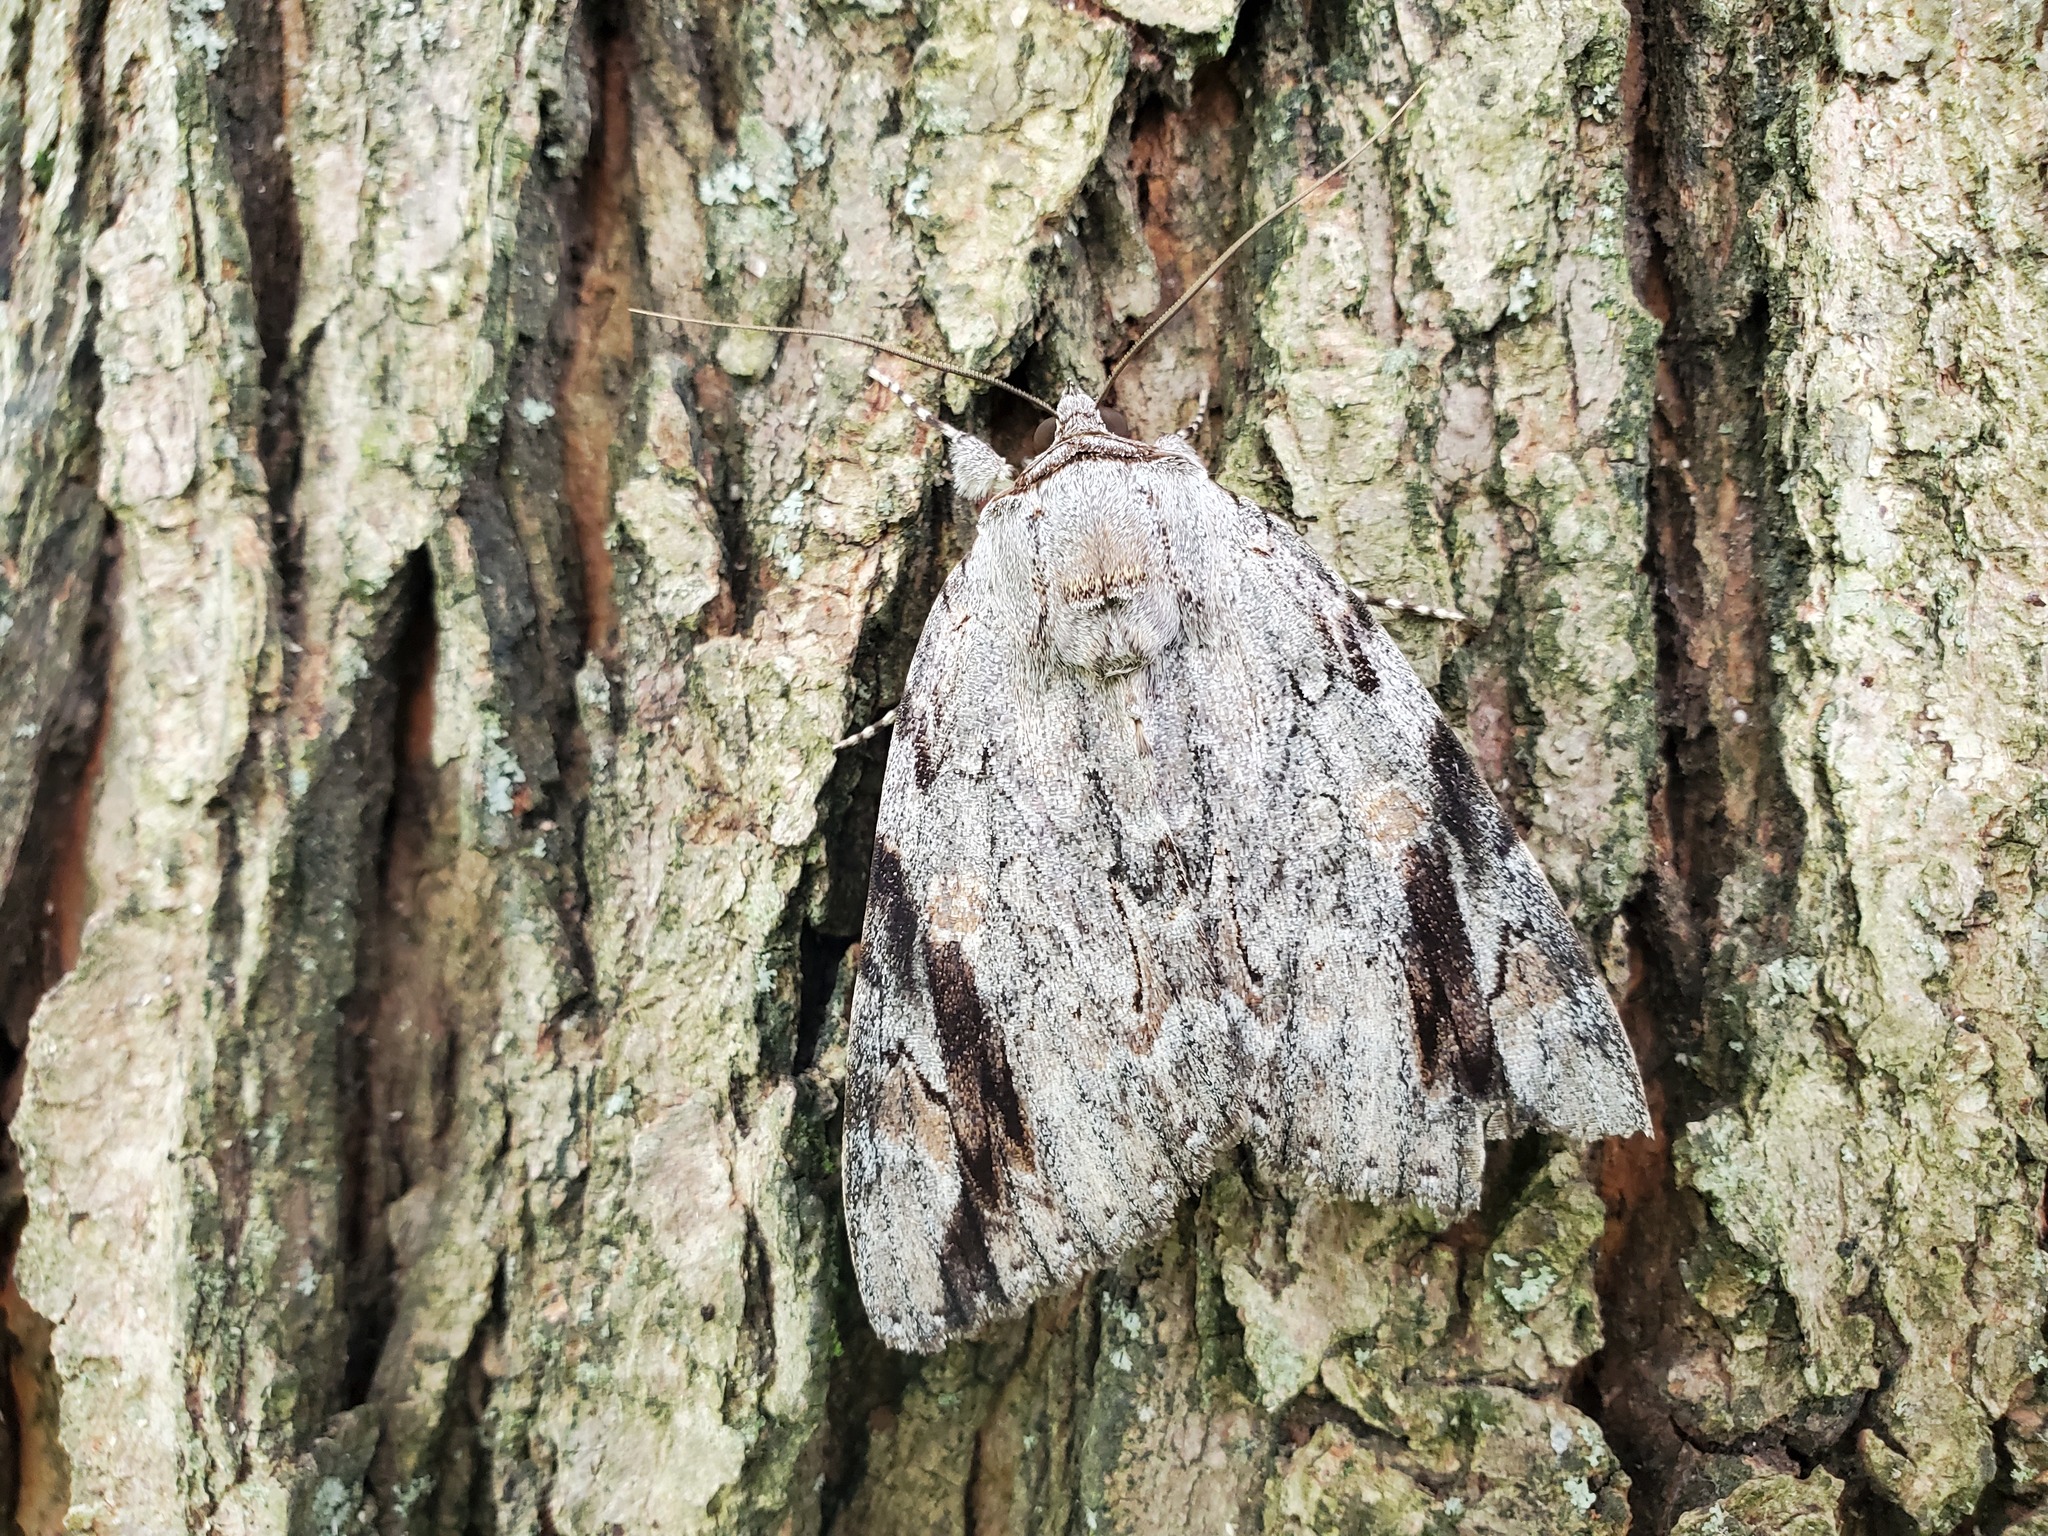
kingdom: Animalia
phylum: Arthropoda
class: Insecta
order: Lepidoptera
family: Erebidae
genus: Catocala
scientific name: Catocala maestosa
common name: Sad underwing
